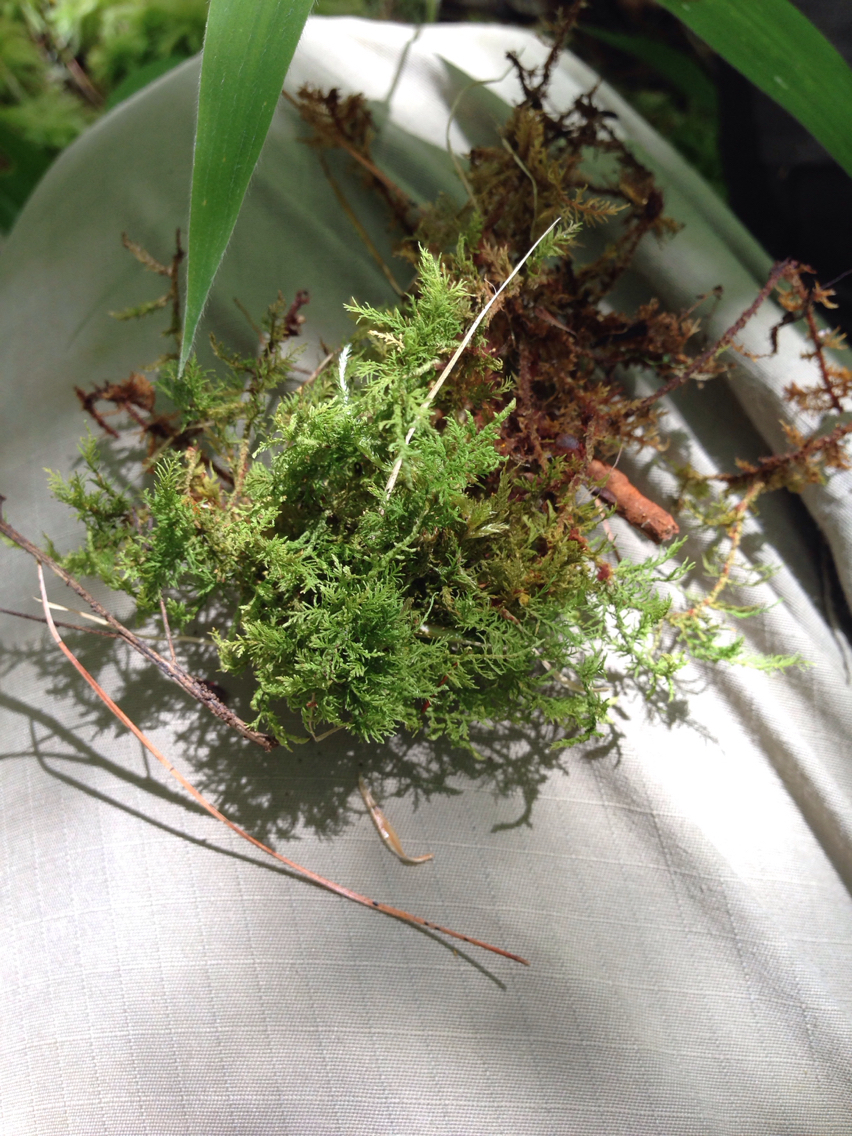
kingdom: Plantae
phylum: Bryophyta
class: Bryopsida
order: Hypnales
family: Thuidiaceae
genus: Thuidium
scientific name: Thuidium delicatulum
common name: Delicate fern moss
